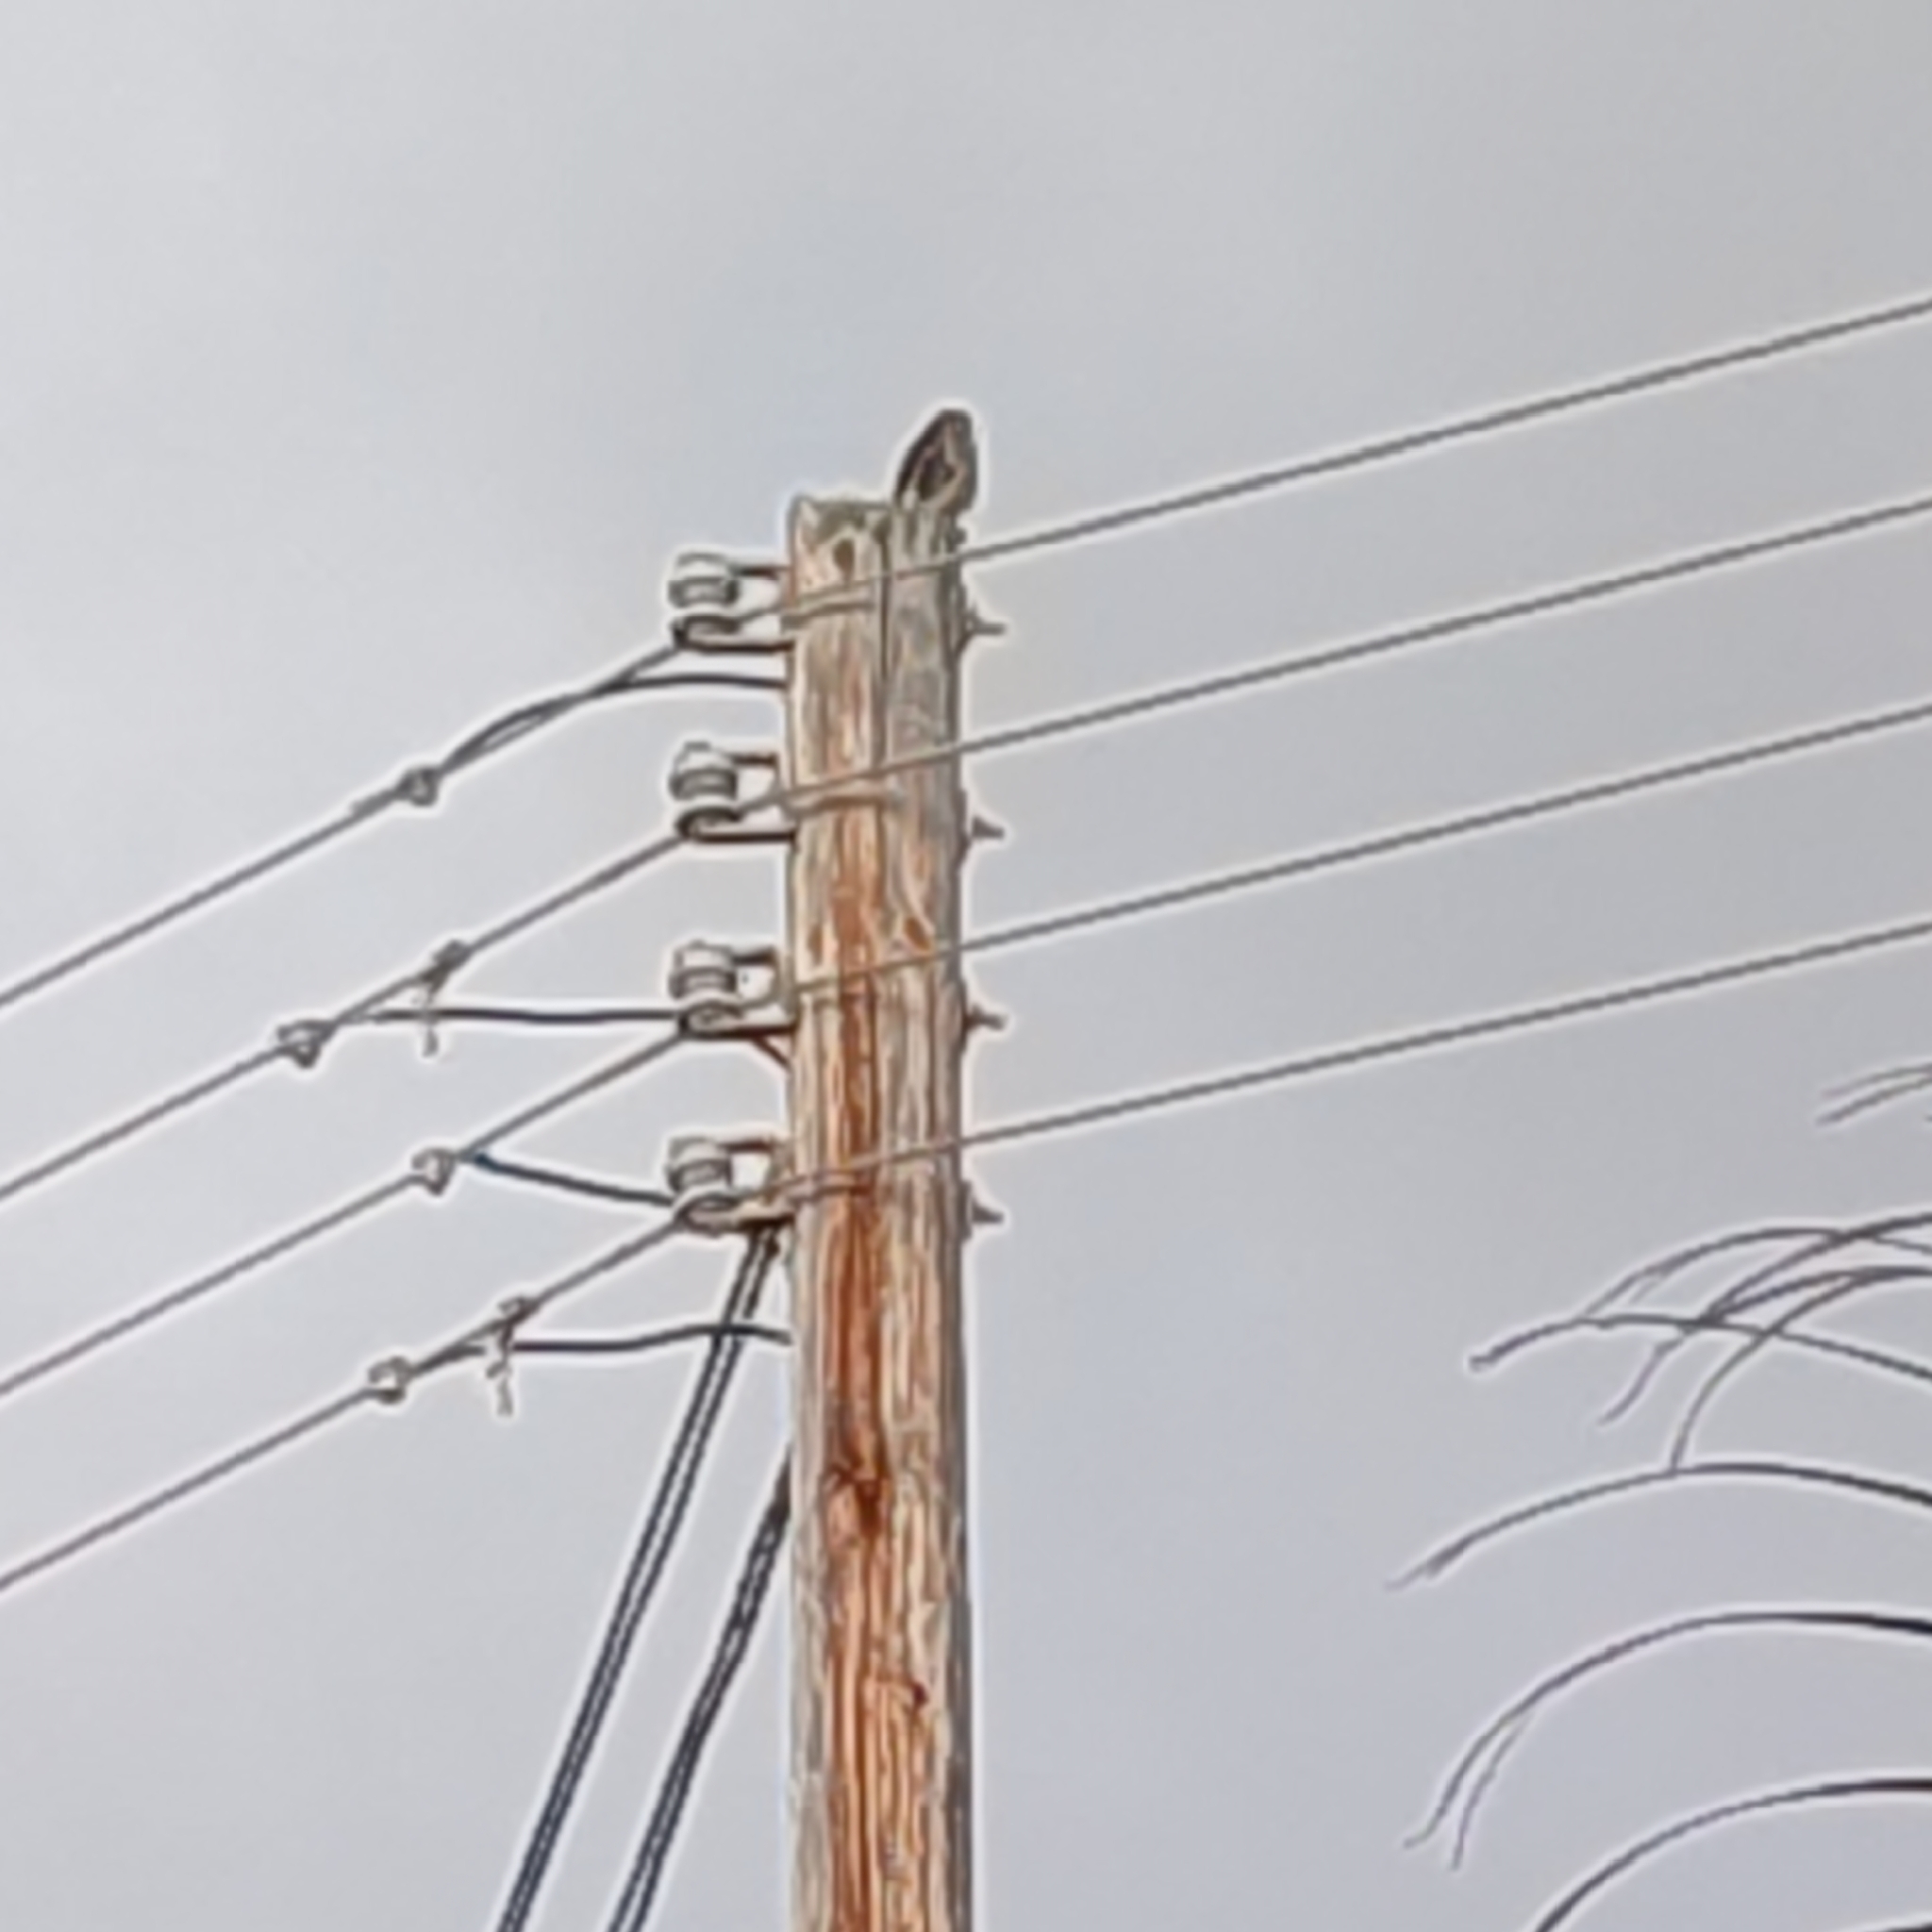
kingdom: Animalia
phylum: Chordata
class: Aves
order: Falconiformes
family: Falconidae
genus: Falco
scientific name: Falco sparverius
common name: American kestrel
